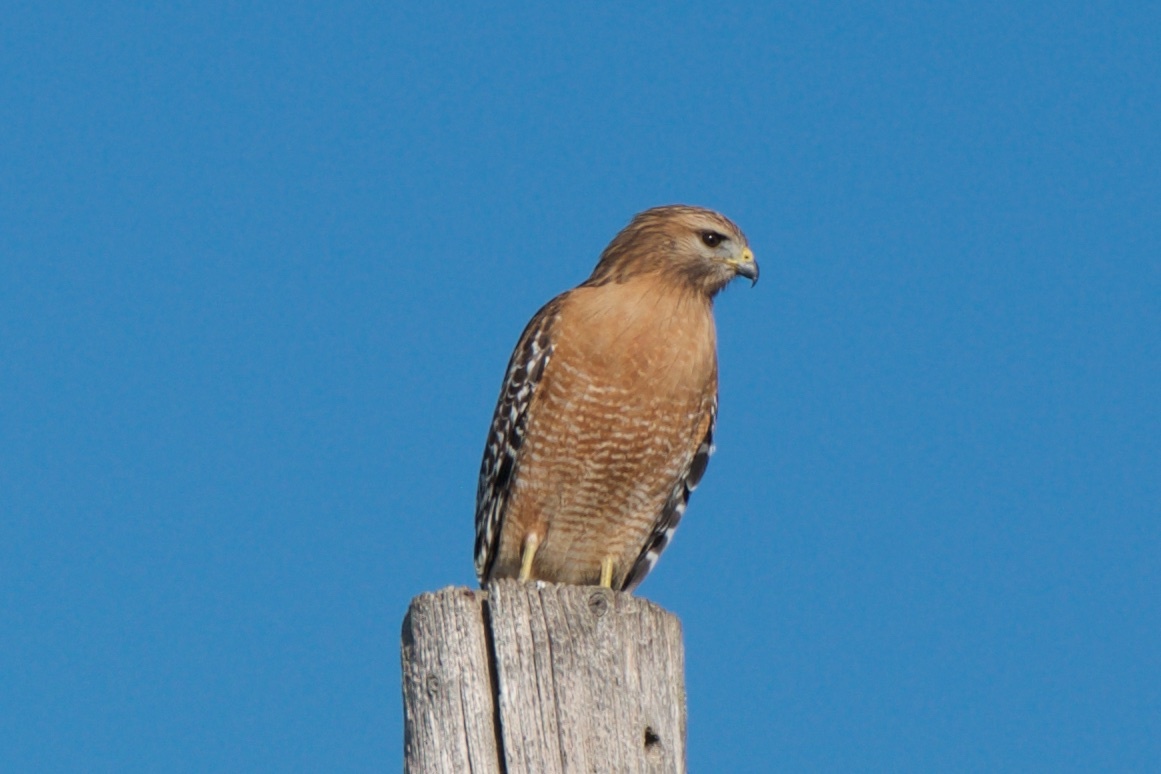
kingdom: Animalia
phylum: Chordata
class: Aves
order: Accipitriformes
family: Accipitridae
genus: Buteo
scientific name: Buteo lineatus
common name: Red-shouldered hawk
